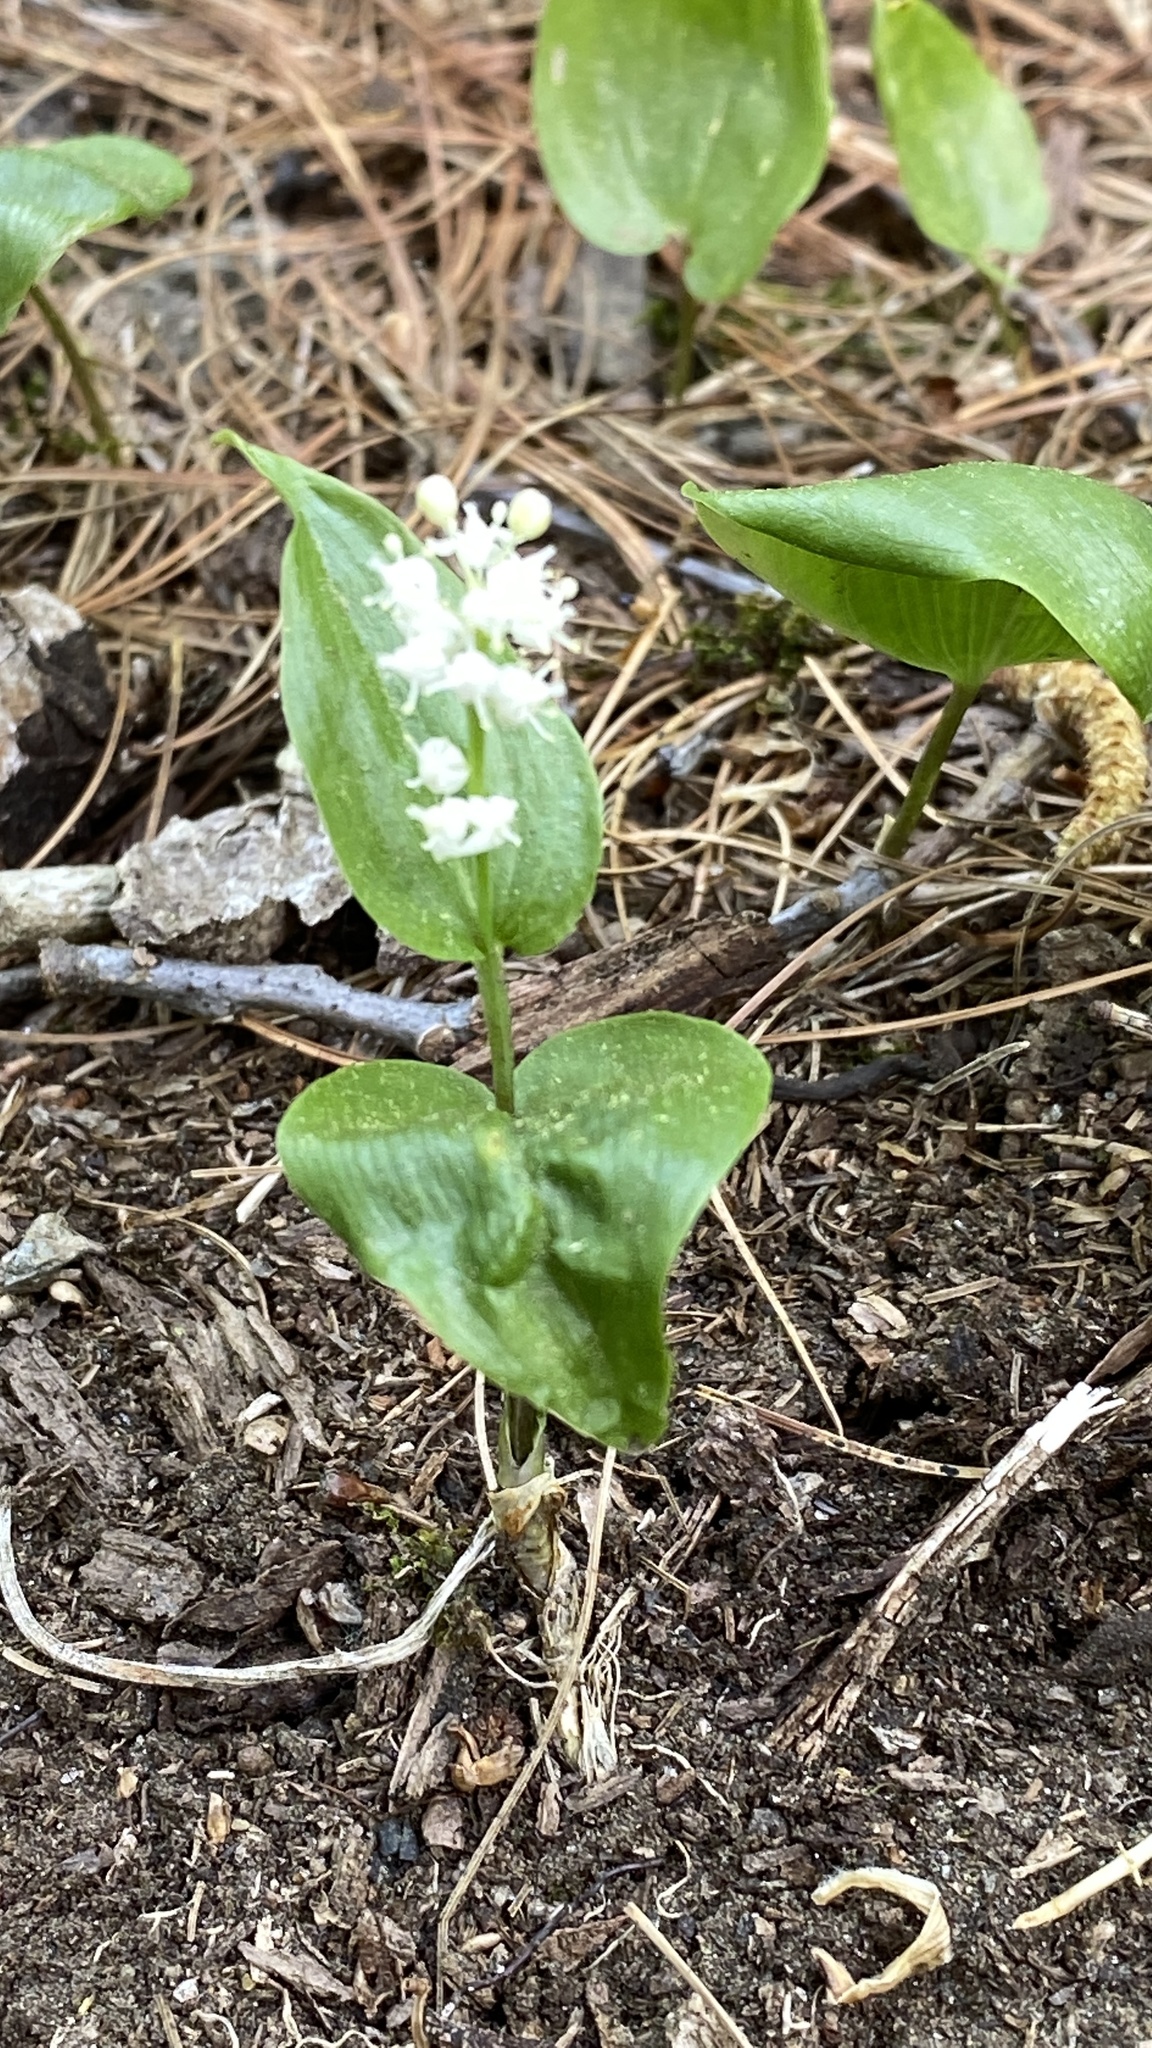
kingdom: Plantae
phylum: Tracheophyta
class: Liliopsida
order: Asparagales
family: Asparagaceae
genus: Maianthemum
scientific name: Maianthemum canadense
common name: False lily-of-the-valley
